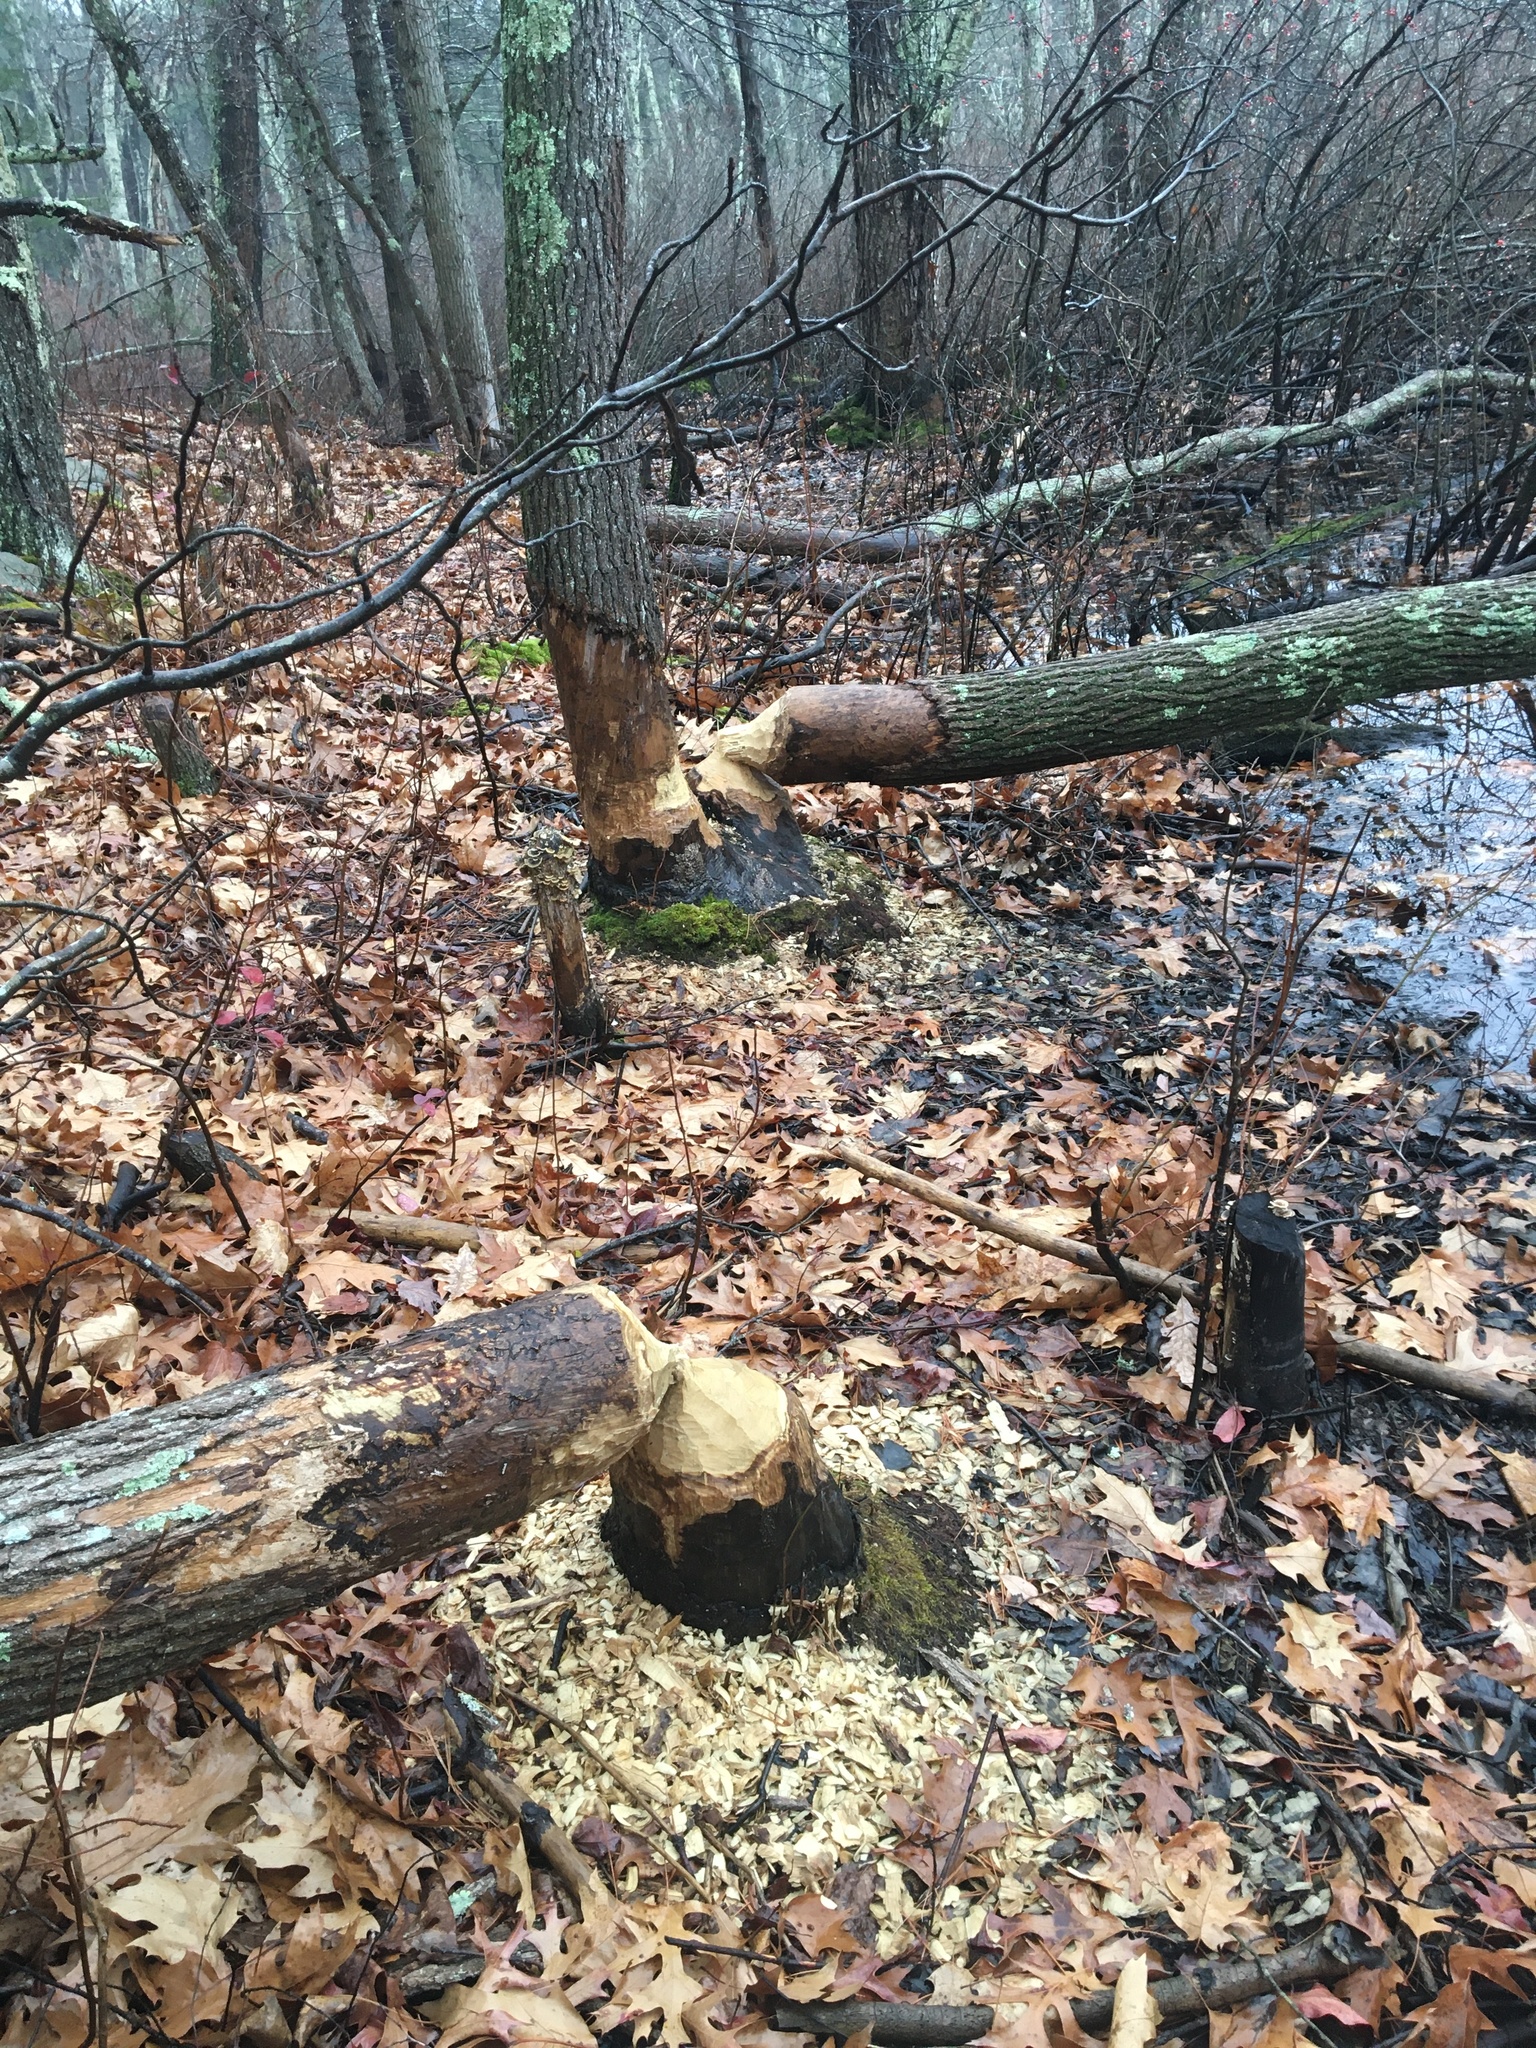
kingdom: Animalia
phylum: Chordata
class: Mammalia
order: Rodentia
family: Castoridae
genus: Castor
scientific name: Castor canadensis
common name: American beaver
